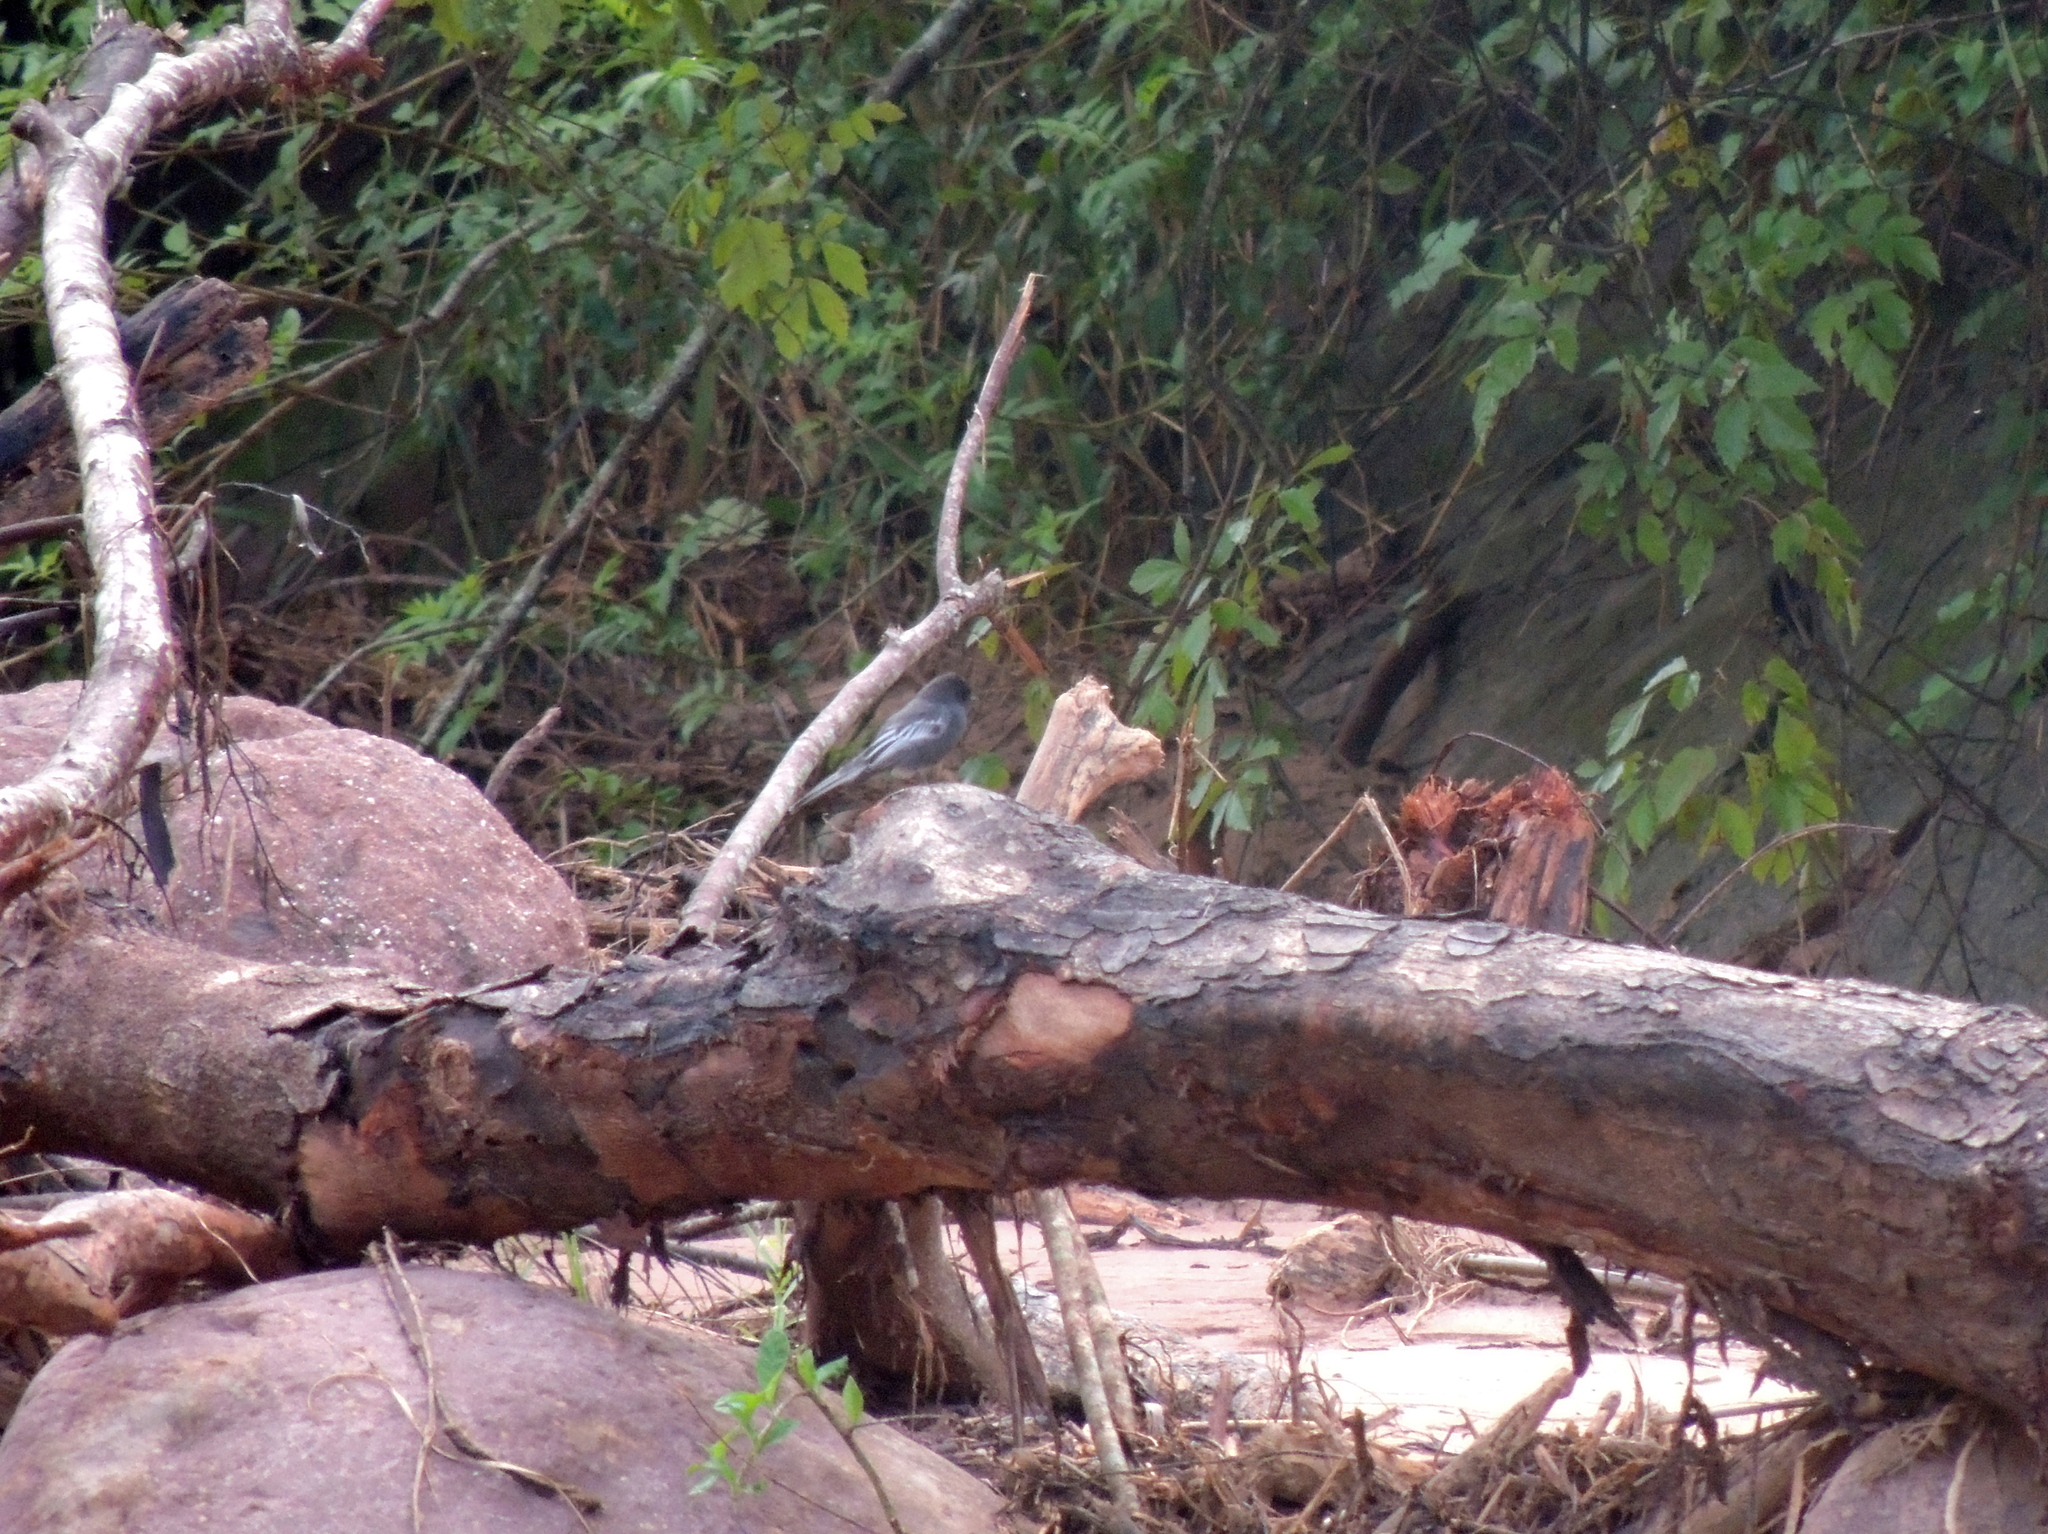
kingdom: Animalia
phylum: Chordata
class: Aves
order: Passeriformes
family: Tyrannidae
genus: Sayornis
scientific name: Sayornis nigricans
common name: Black phoebe
